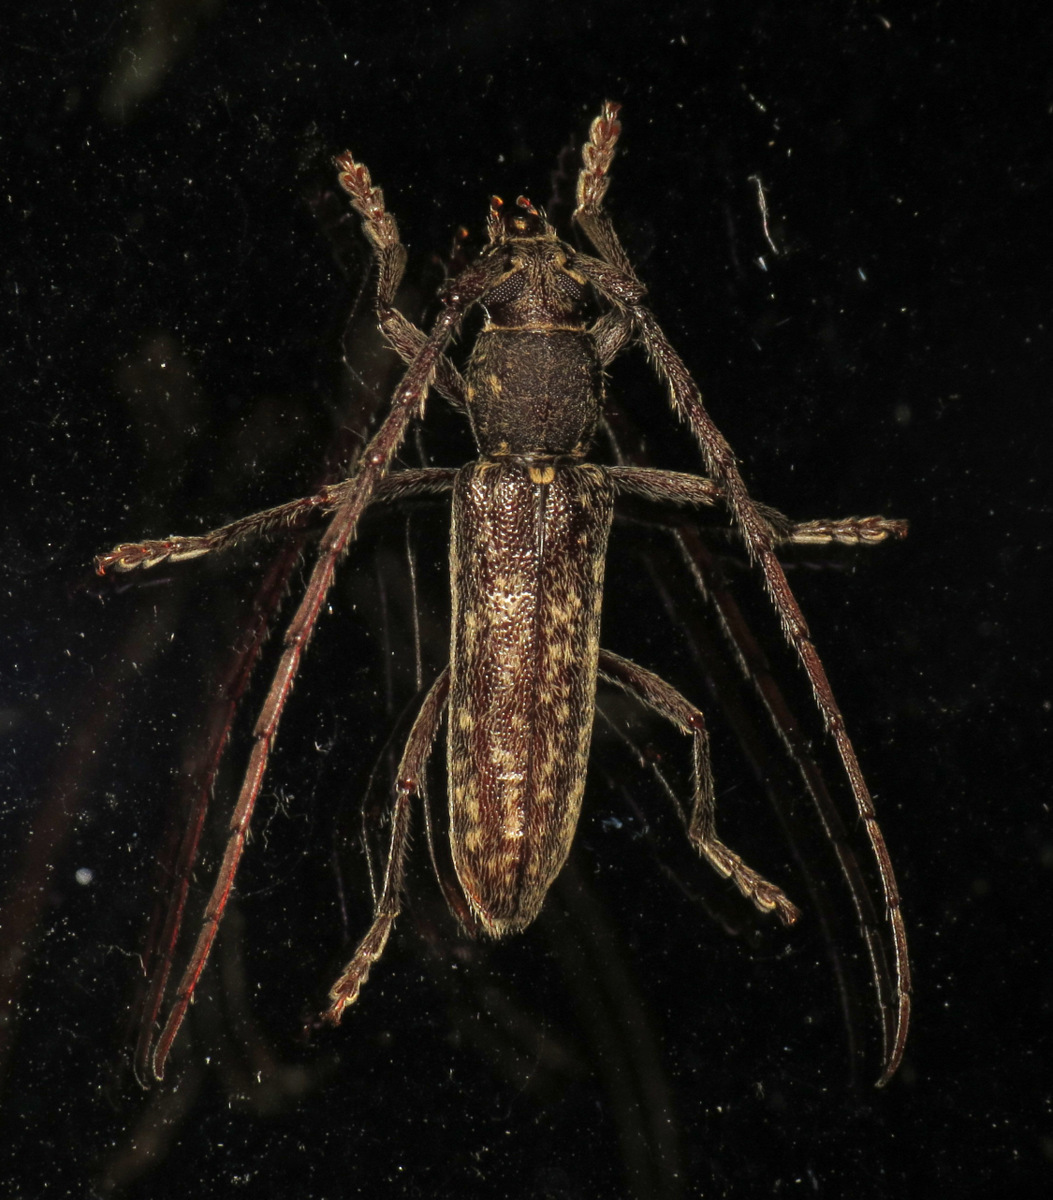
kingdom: Animalia
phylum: Arthropoda
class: Insecta
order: Coleoptera
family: Cerambycidae
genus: Anelaphus
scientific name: Anelaphus villosus
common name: Twig pruner
